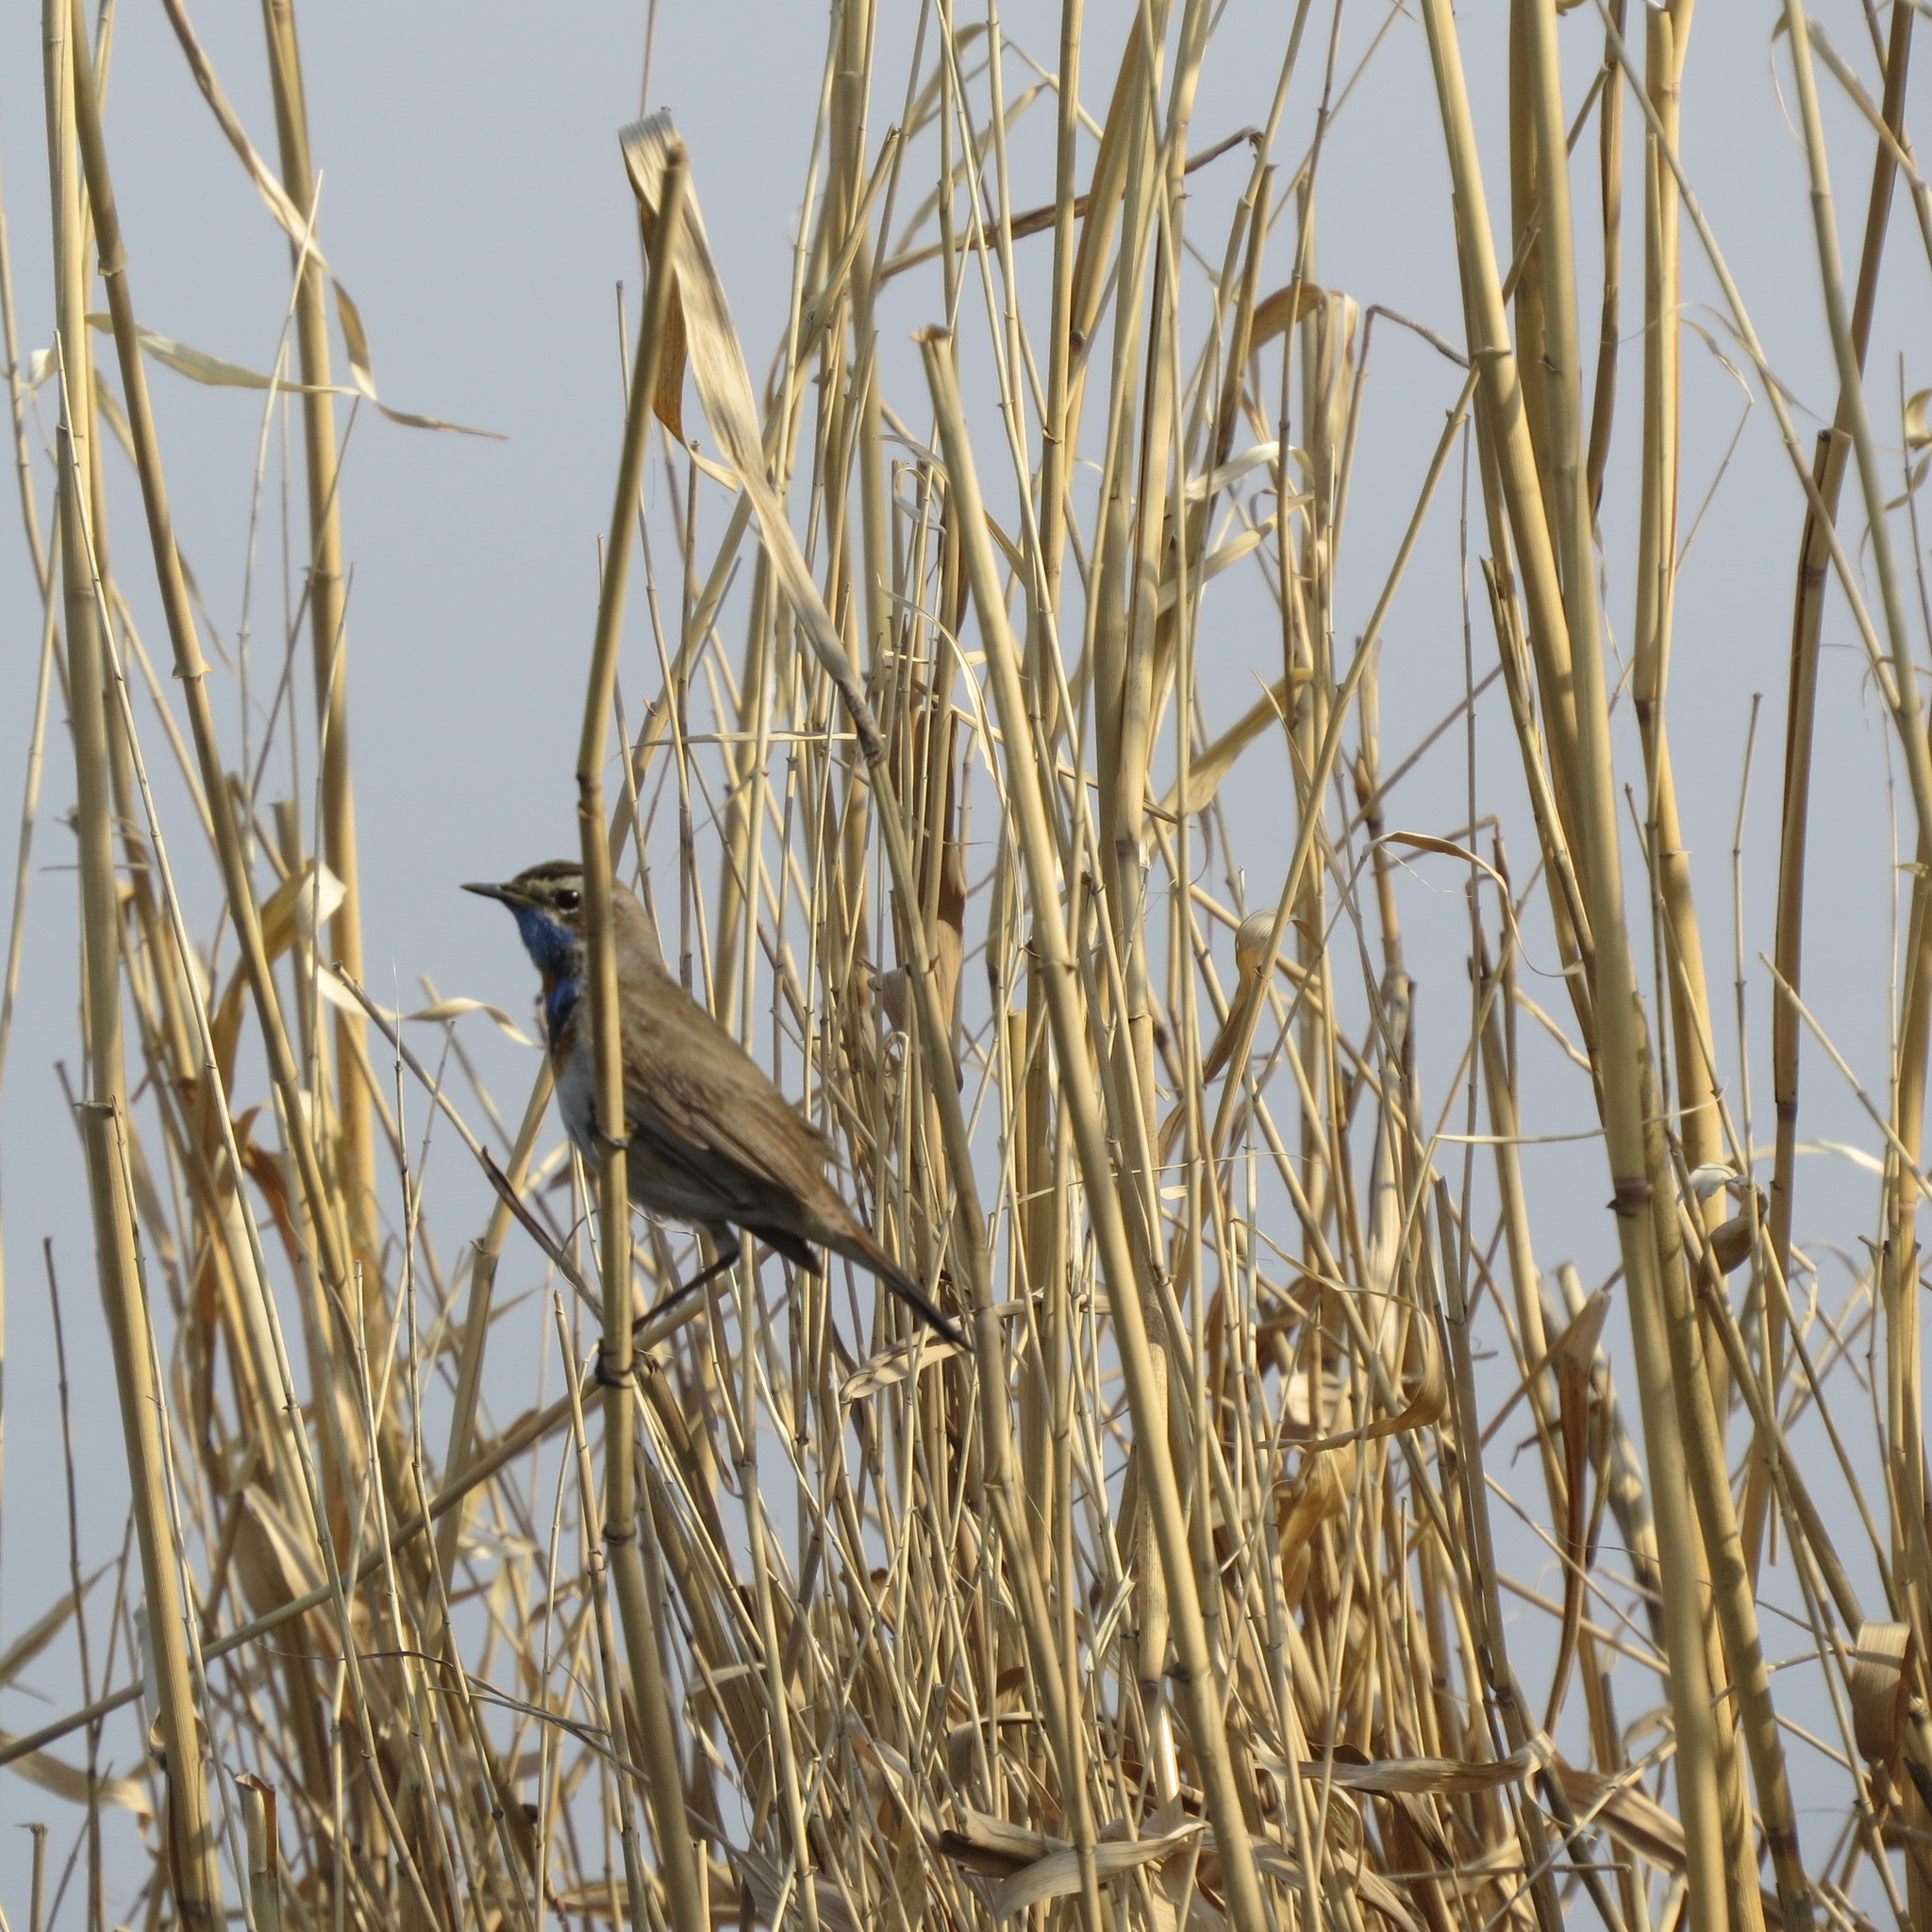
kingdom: Animalia
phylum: Chordata
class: Aves
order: Passeriformes
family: Muscicapidae
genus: Luscinia
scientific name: Luscinia svecica
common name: Bluethroat
